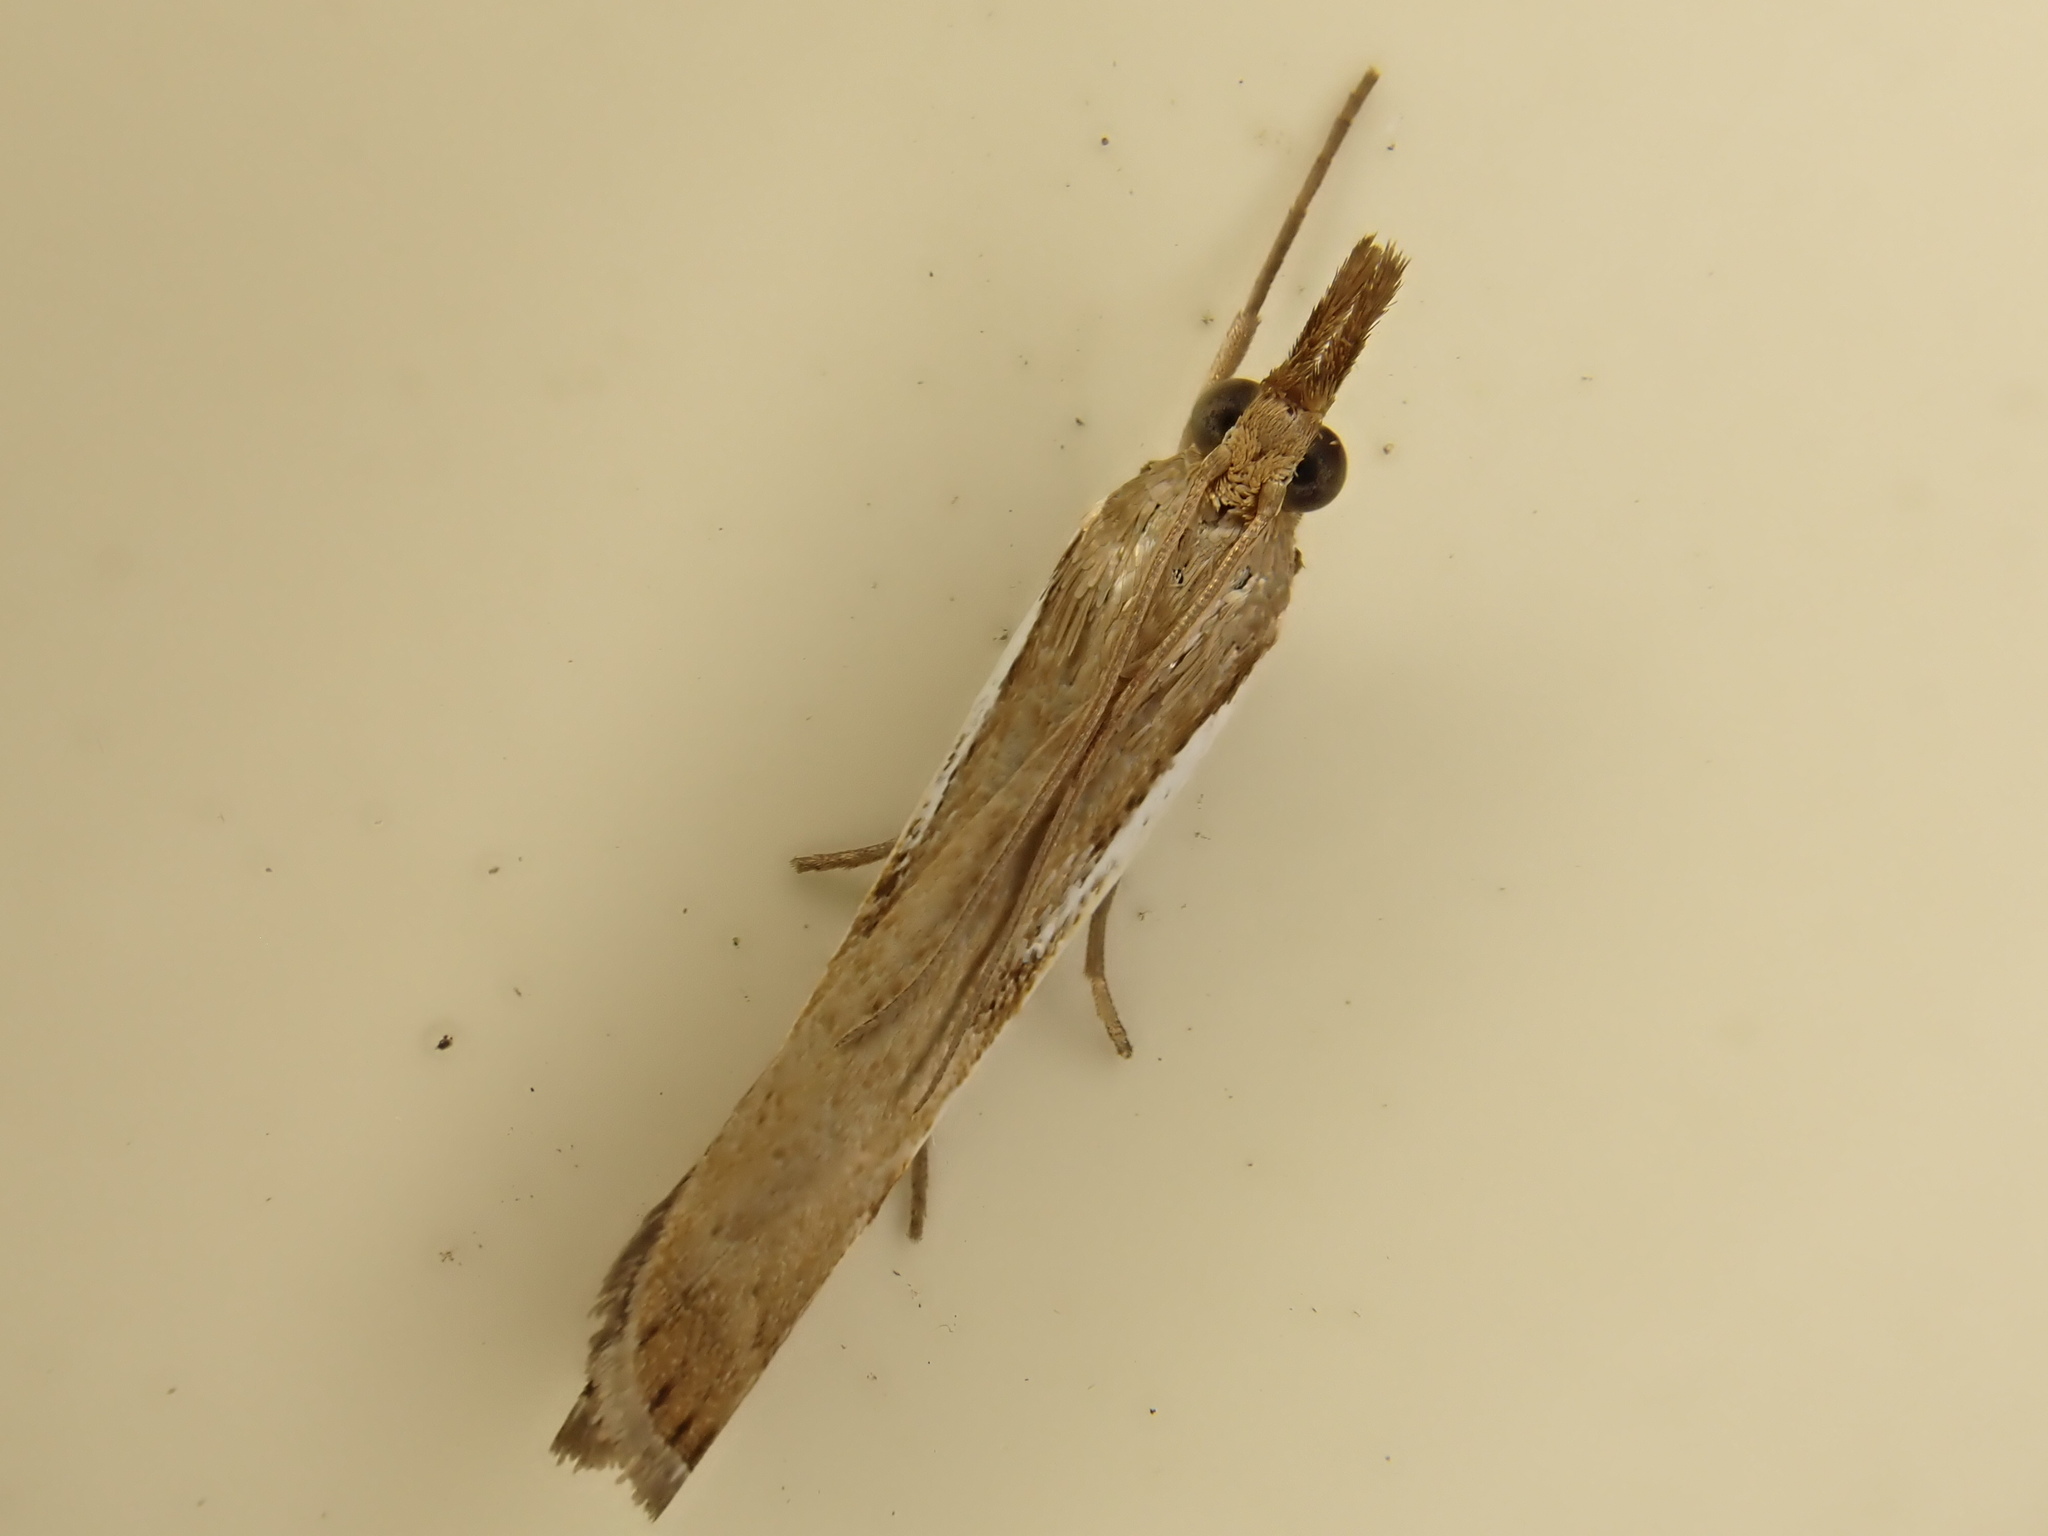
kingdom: Animalia
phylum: Arthropoda
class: Insecta
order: Lepidoptera
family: Crambidae
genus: Orocrambus
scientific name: Orocrambus flexuosellus
